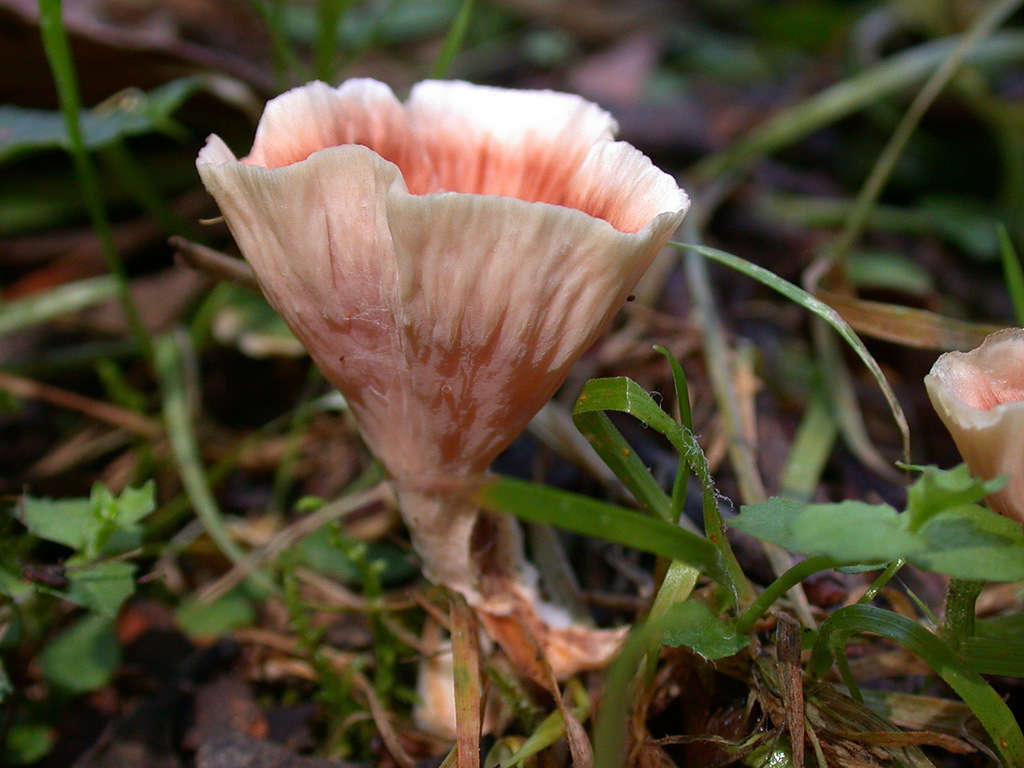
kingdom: Fungi
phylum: Basidiomycota
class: Agaricomycetes
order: Polyporales
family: Podoscyphaceae
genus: Podoscypha
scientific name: Podoscypha petalodes
